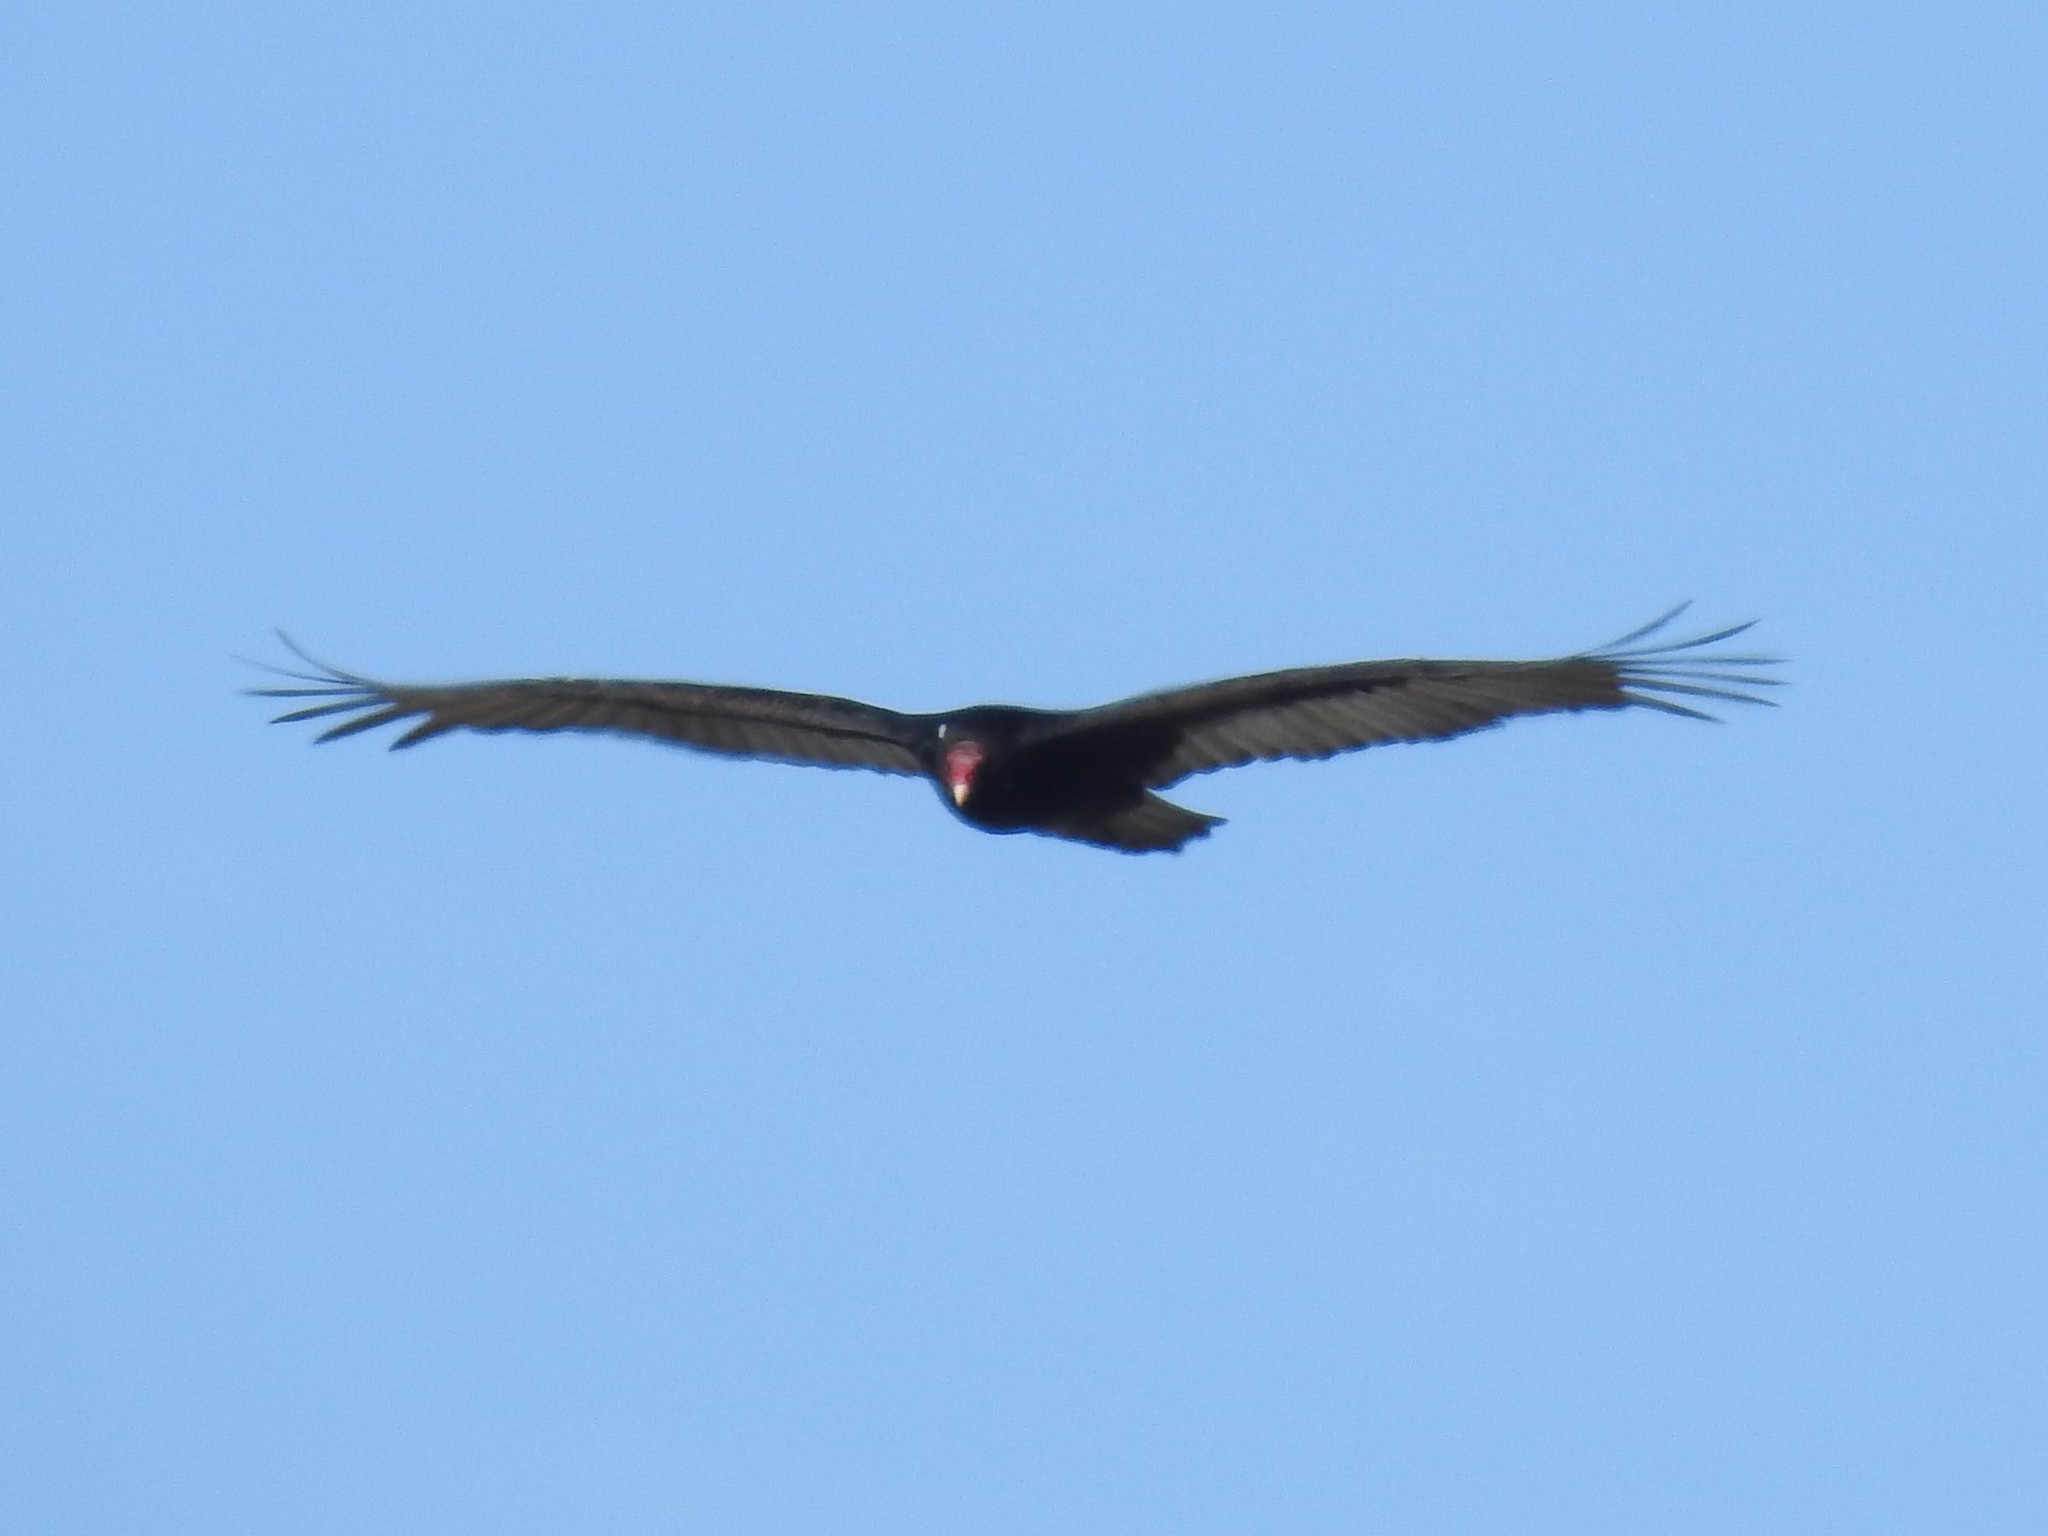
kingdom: Animalia
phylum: Chordata
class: Aves
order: Accipitriformes
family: Cathartidae
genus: Cathartes
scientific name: Cathartes aura
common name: Turkey vulture
